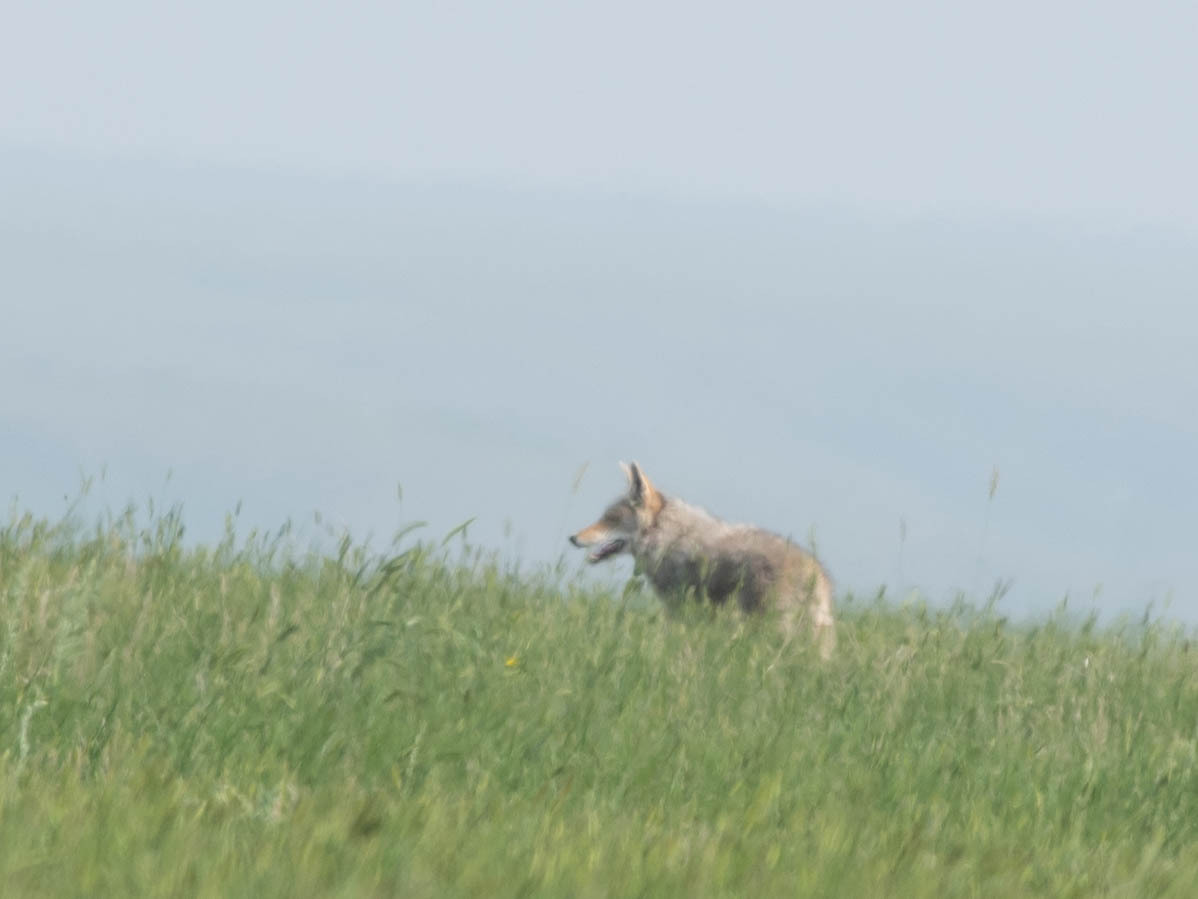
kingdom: Animalia
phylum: Chordata
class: Mammalia
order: Carnivora
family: Canidae
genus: Canis
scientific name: Canis latrans
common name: Coyote
